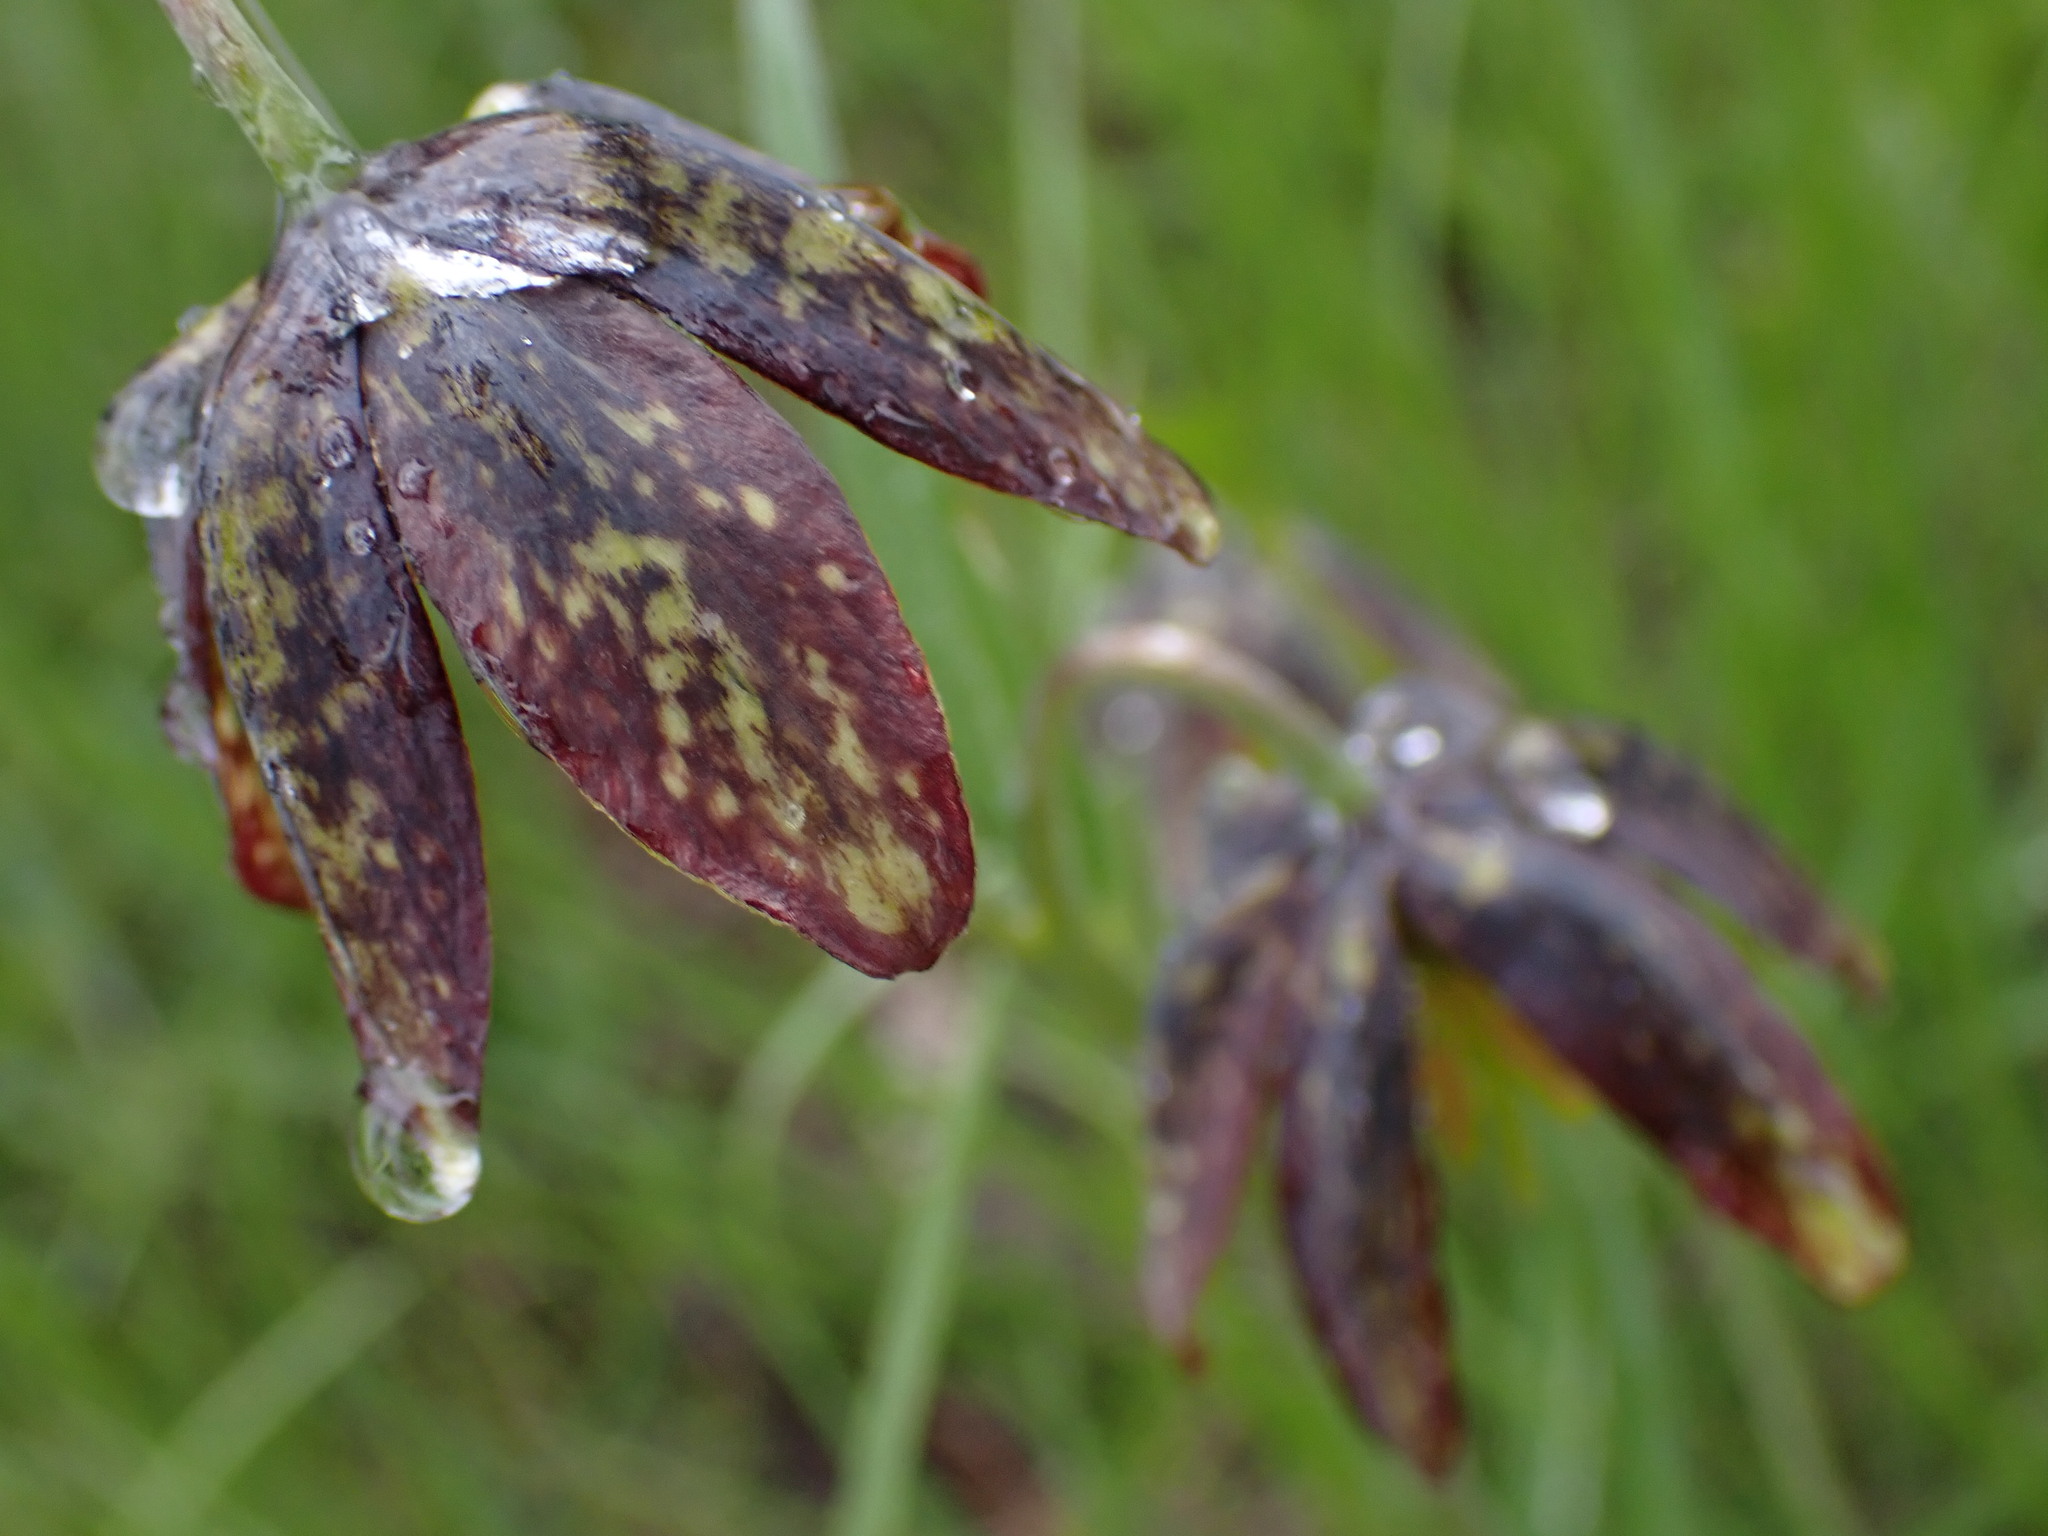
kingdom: Plantae
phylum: Tracheophyta
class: Liliopsida
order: Liliales
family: Liliaceae
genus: Fritillaria
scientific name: Fritillaria affinis
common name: Ojai fritillary
